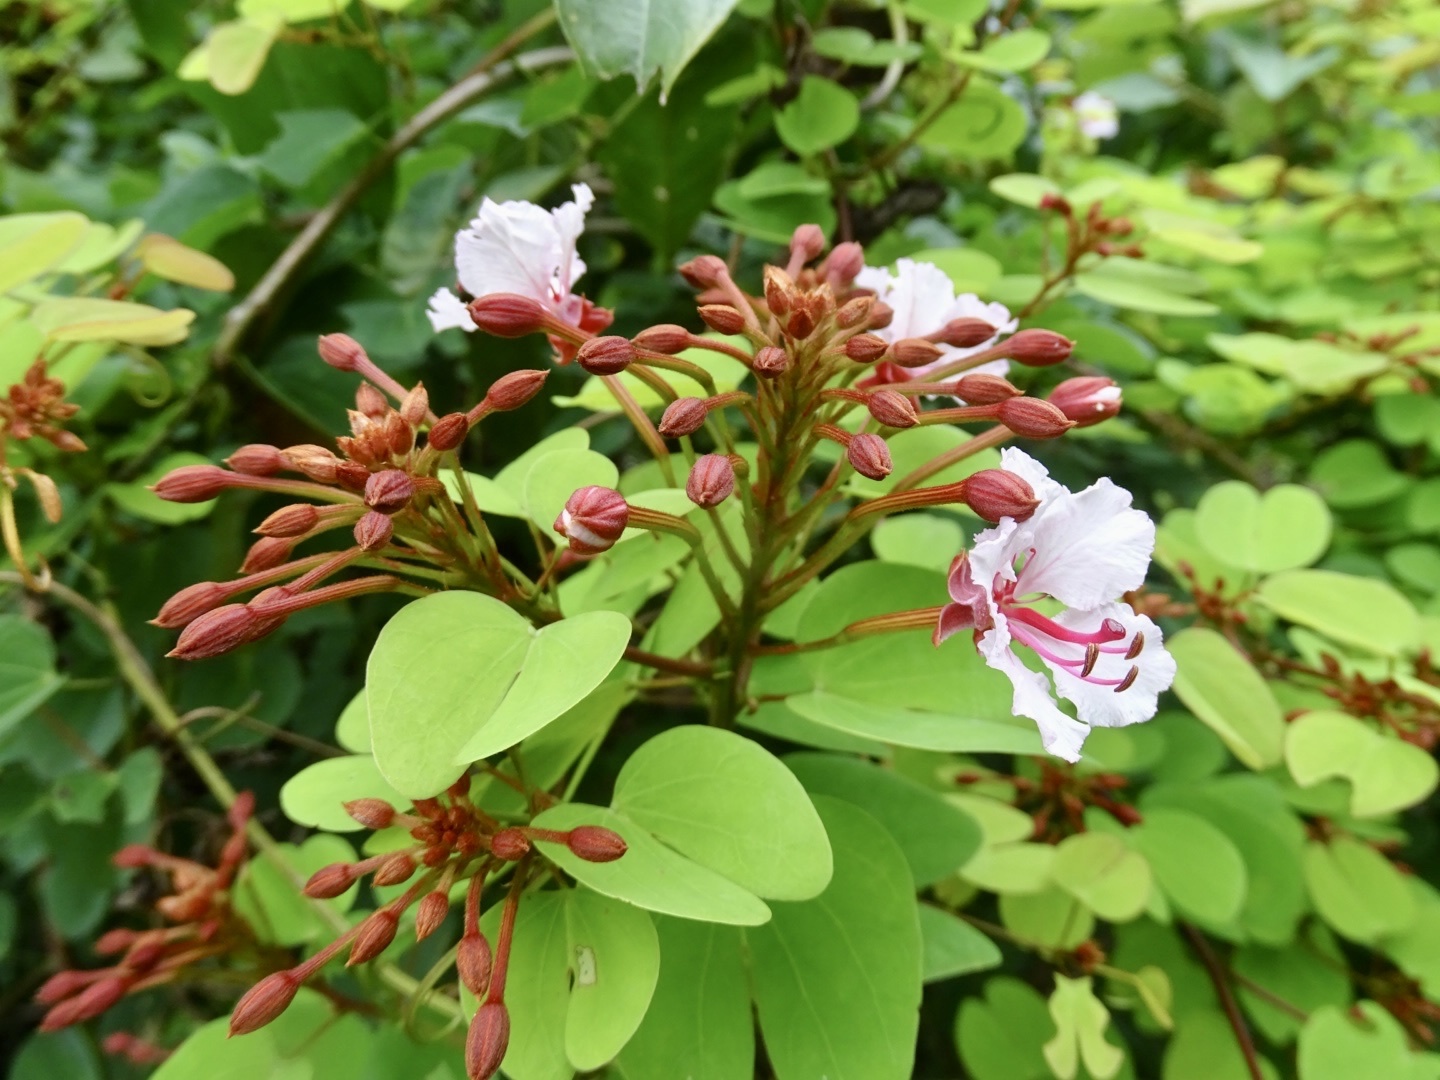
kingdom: Plantae
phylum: Tracheophyta
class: Magnoliopsida
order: Fabales
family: Fabaceae
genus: Cheniella
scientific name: Cheniella corymbosa
